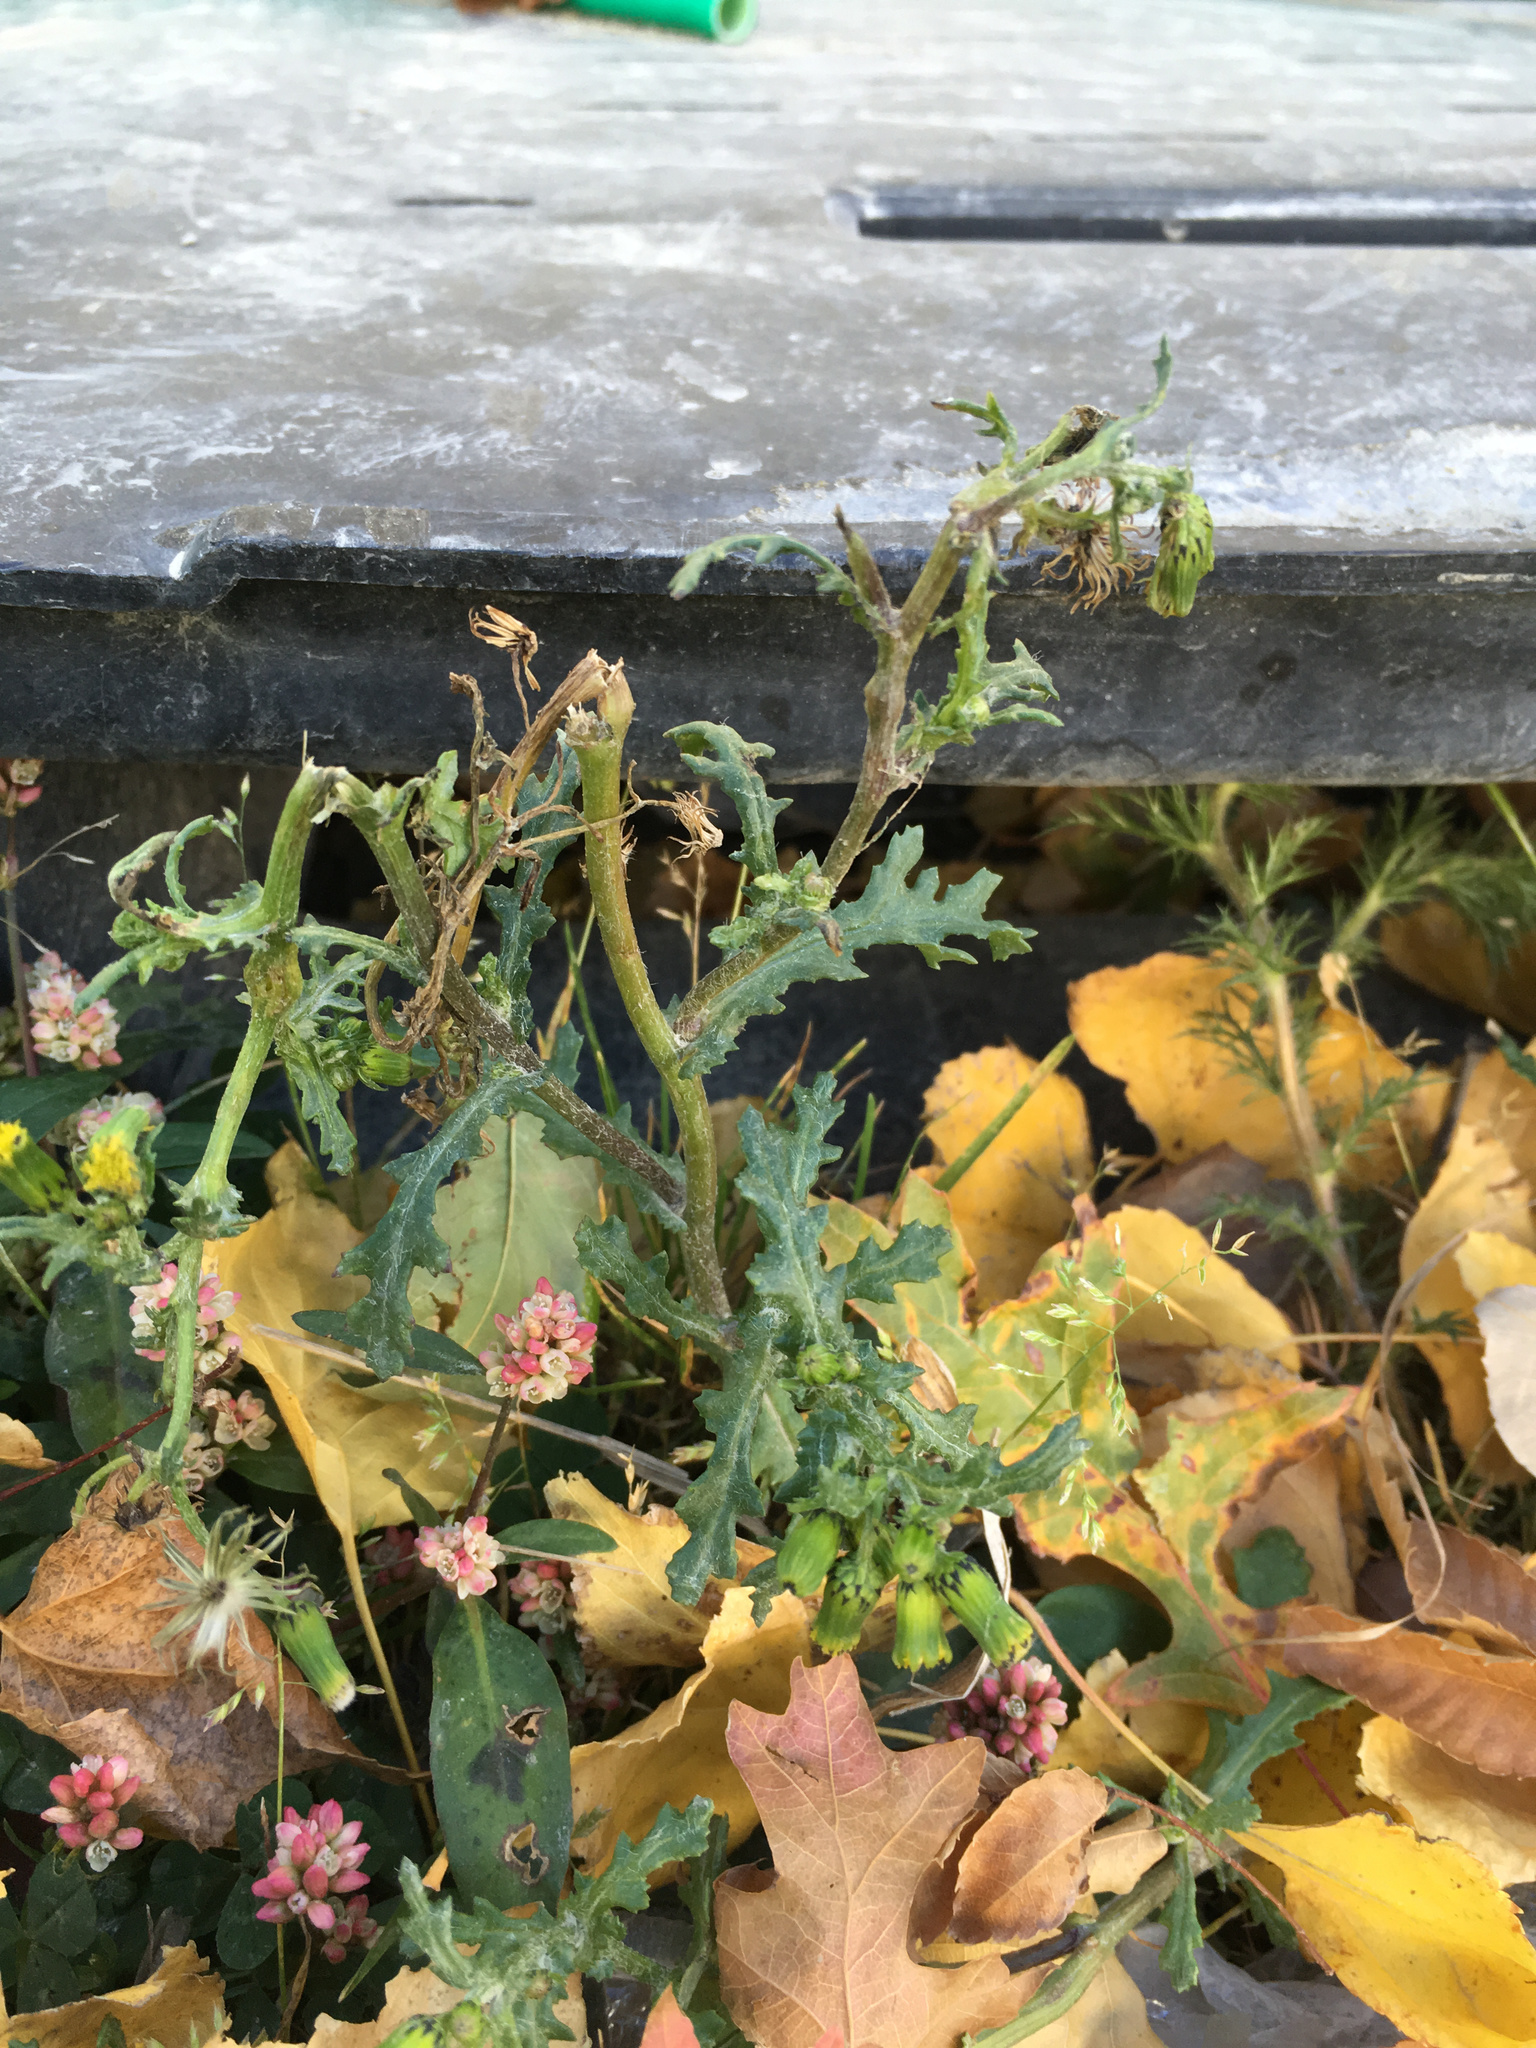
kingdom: Plantae
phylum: Tracheophyta
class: Magnoliopsida
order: Asterales
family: Asteraceae
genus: Senecio
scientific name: Senecio vulgaris
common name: Old-man-in-the-spring
